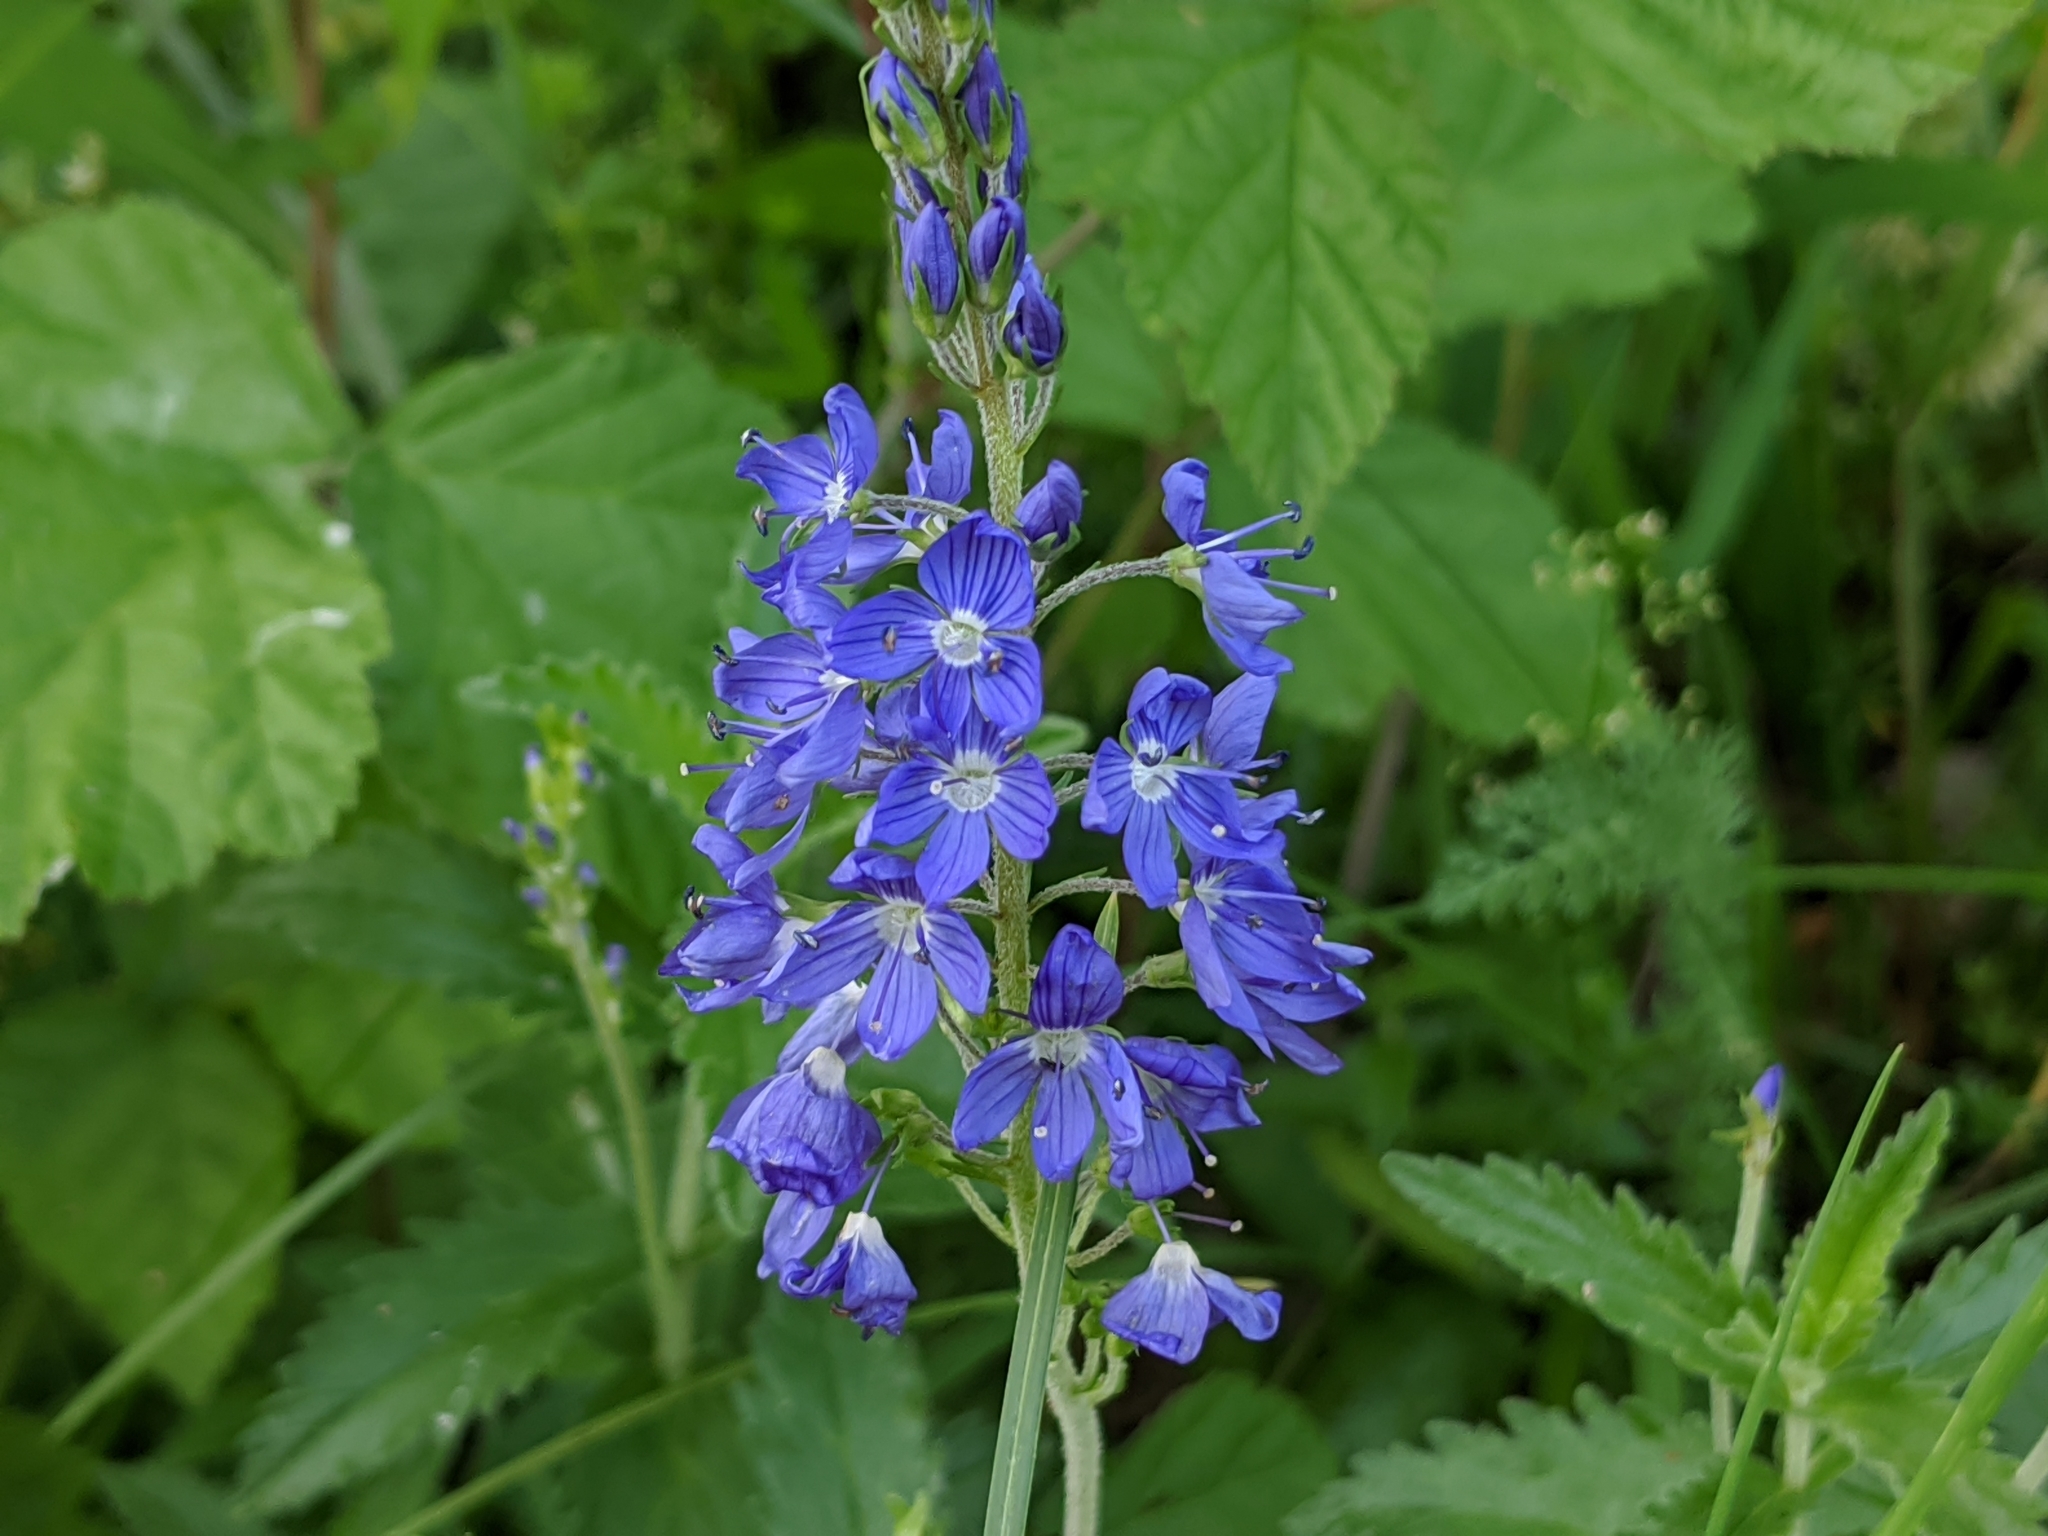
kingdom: Plantae
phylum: Tracheophyta
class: Magnoliopsida
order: Lamiales
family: Plantaginaceae
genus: Veronica
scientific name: Veronica teucrium
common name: Large speedwell
